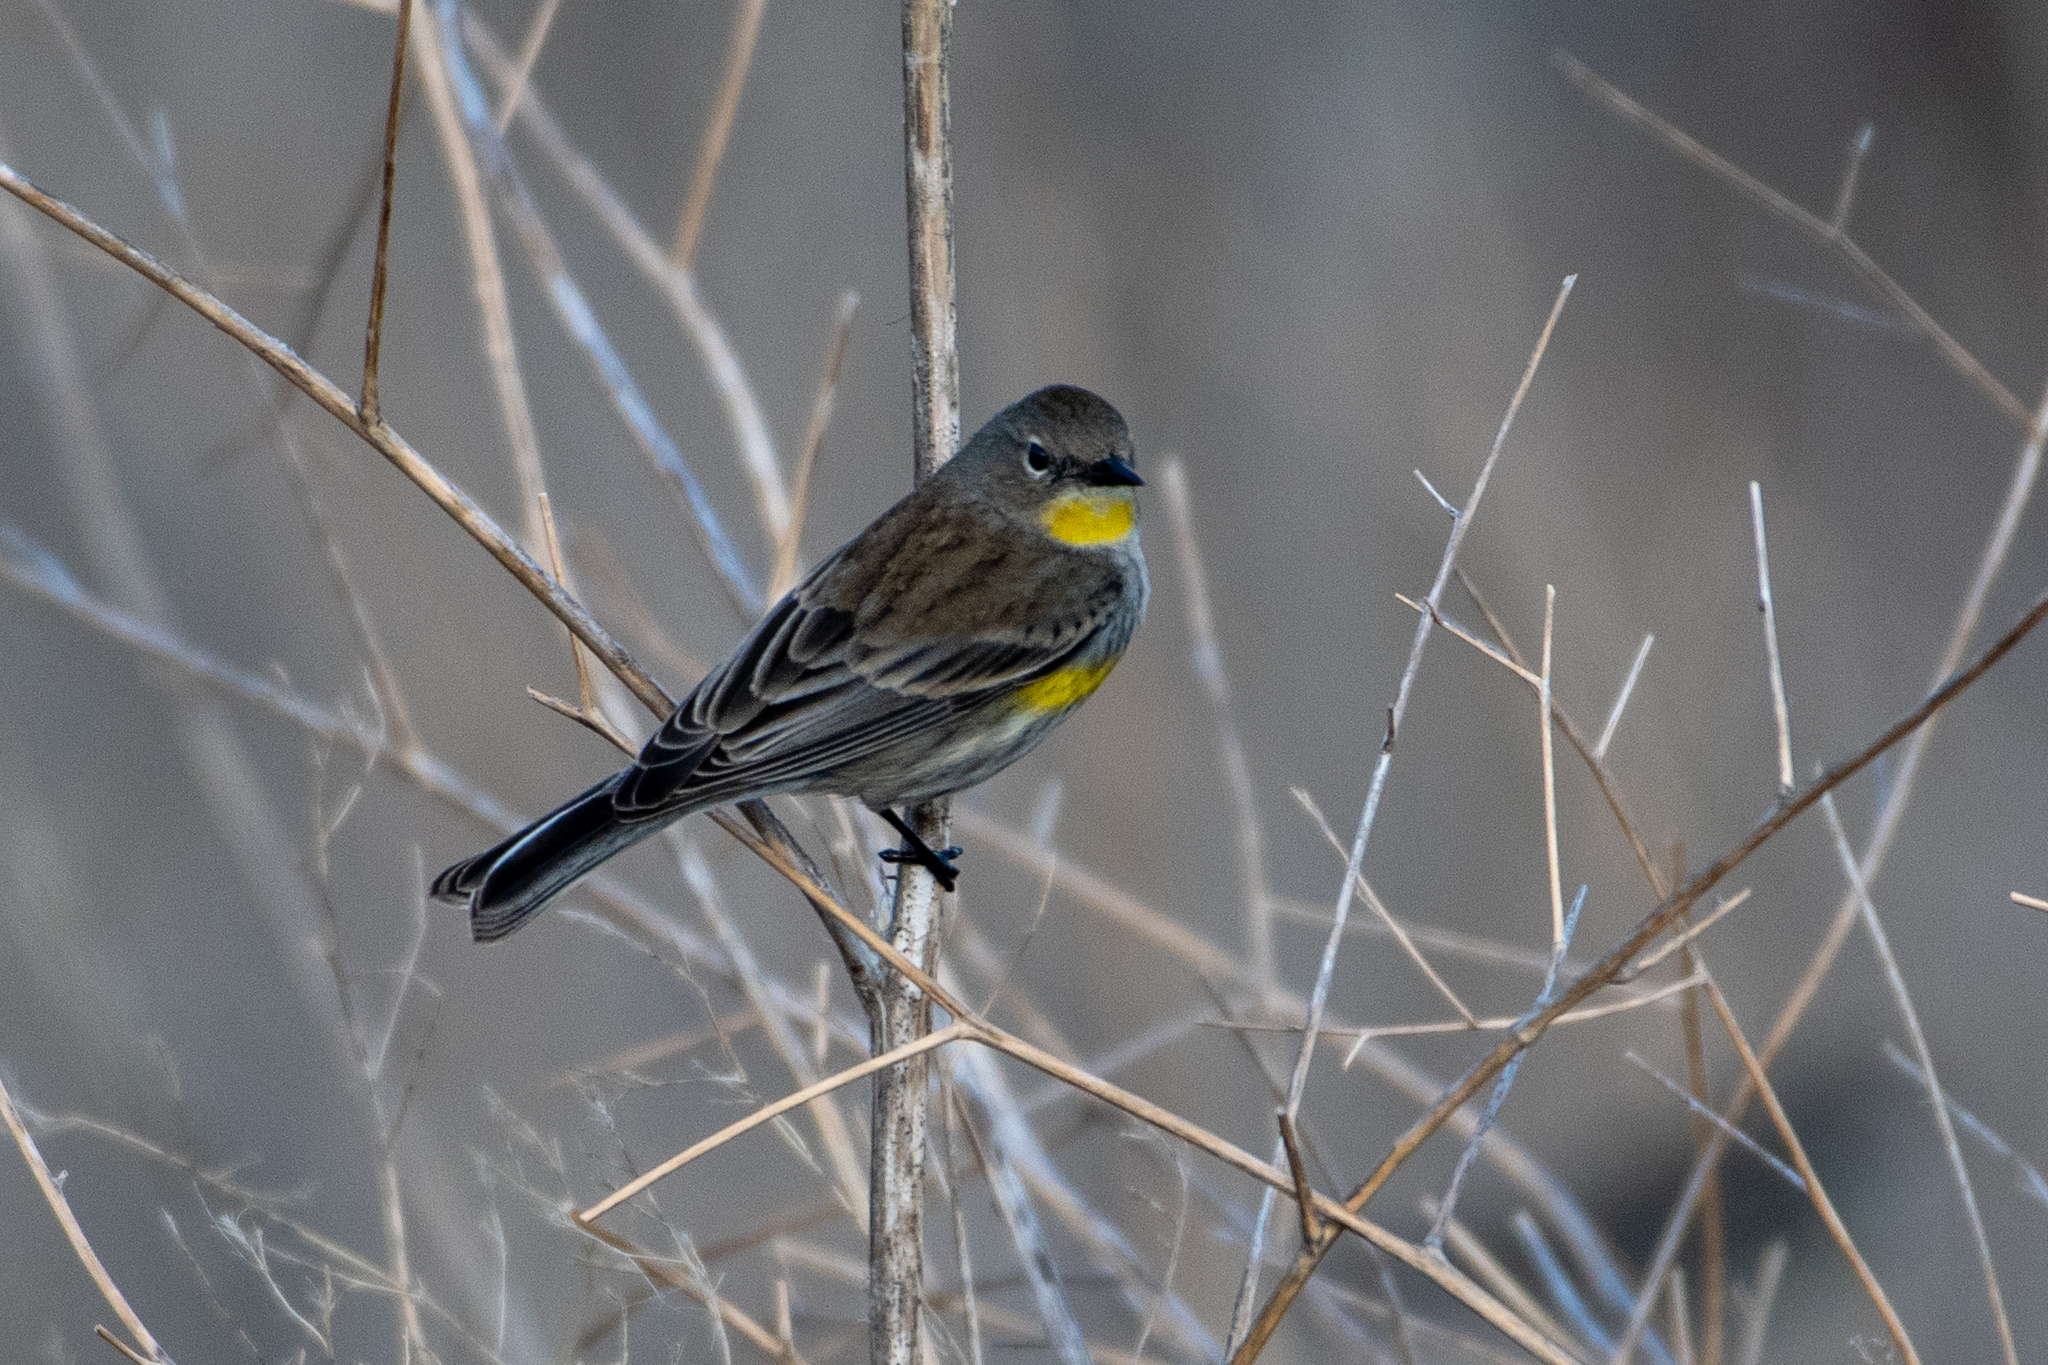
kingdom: Animalia
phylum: Chordata
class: Aves
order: Passeriformes
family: Parulidae
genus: Setophaga
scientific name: Setophaga coronata
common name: Myrtle warbler
